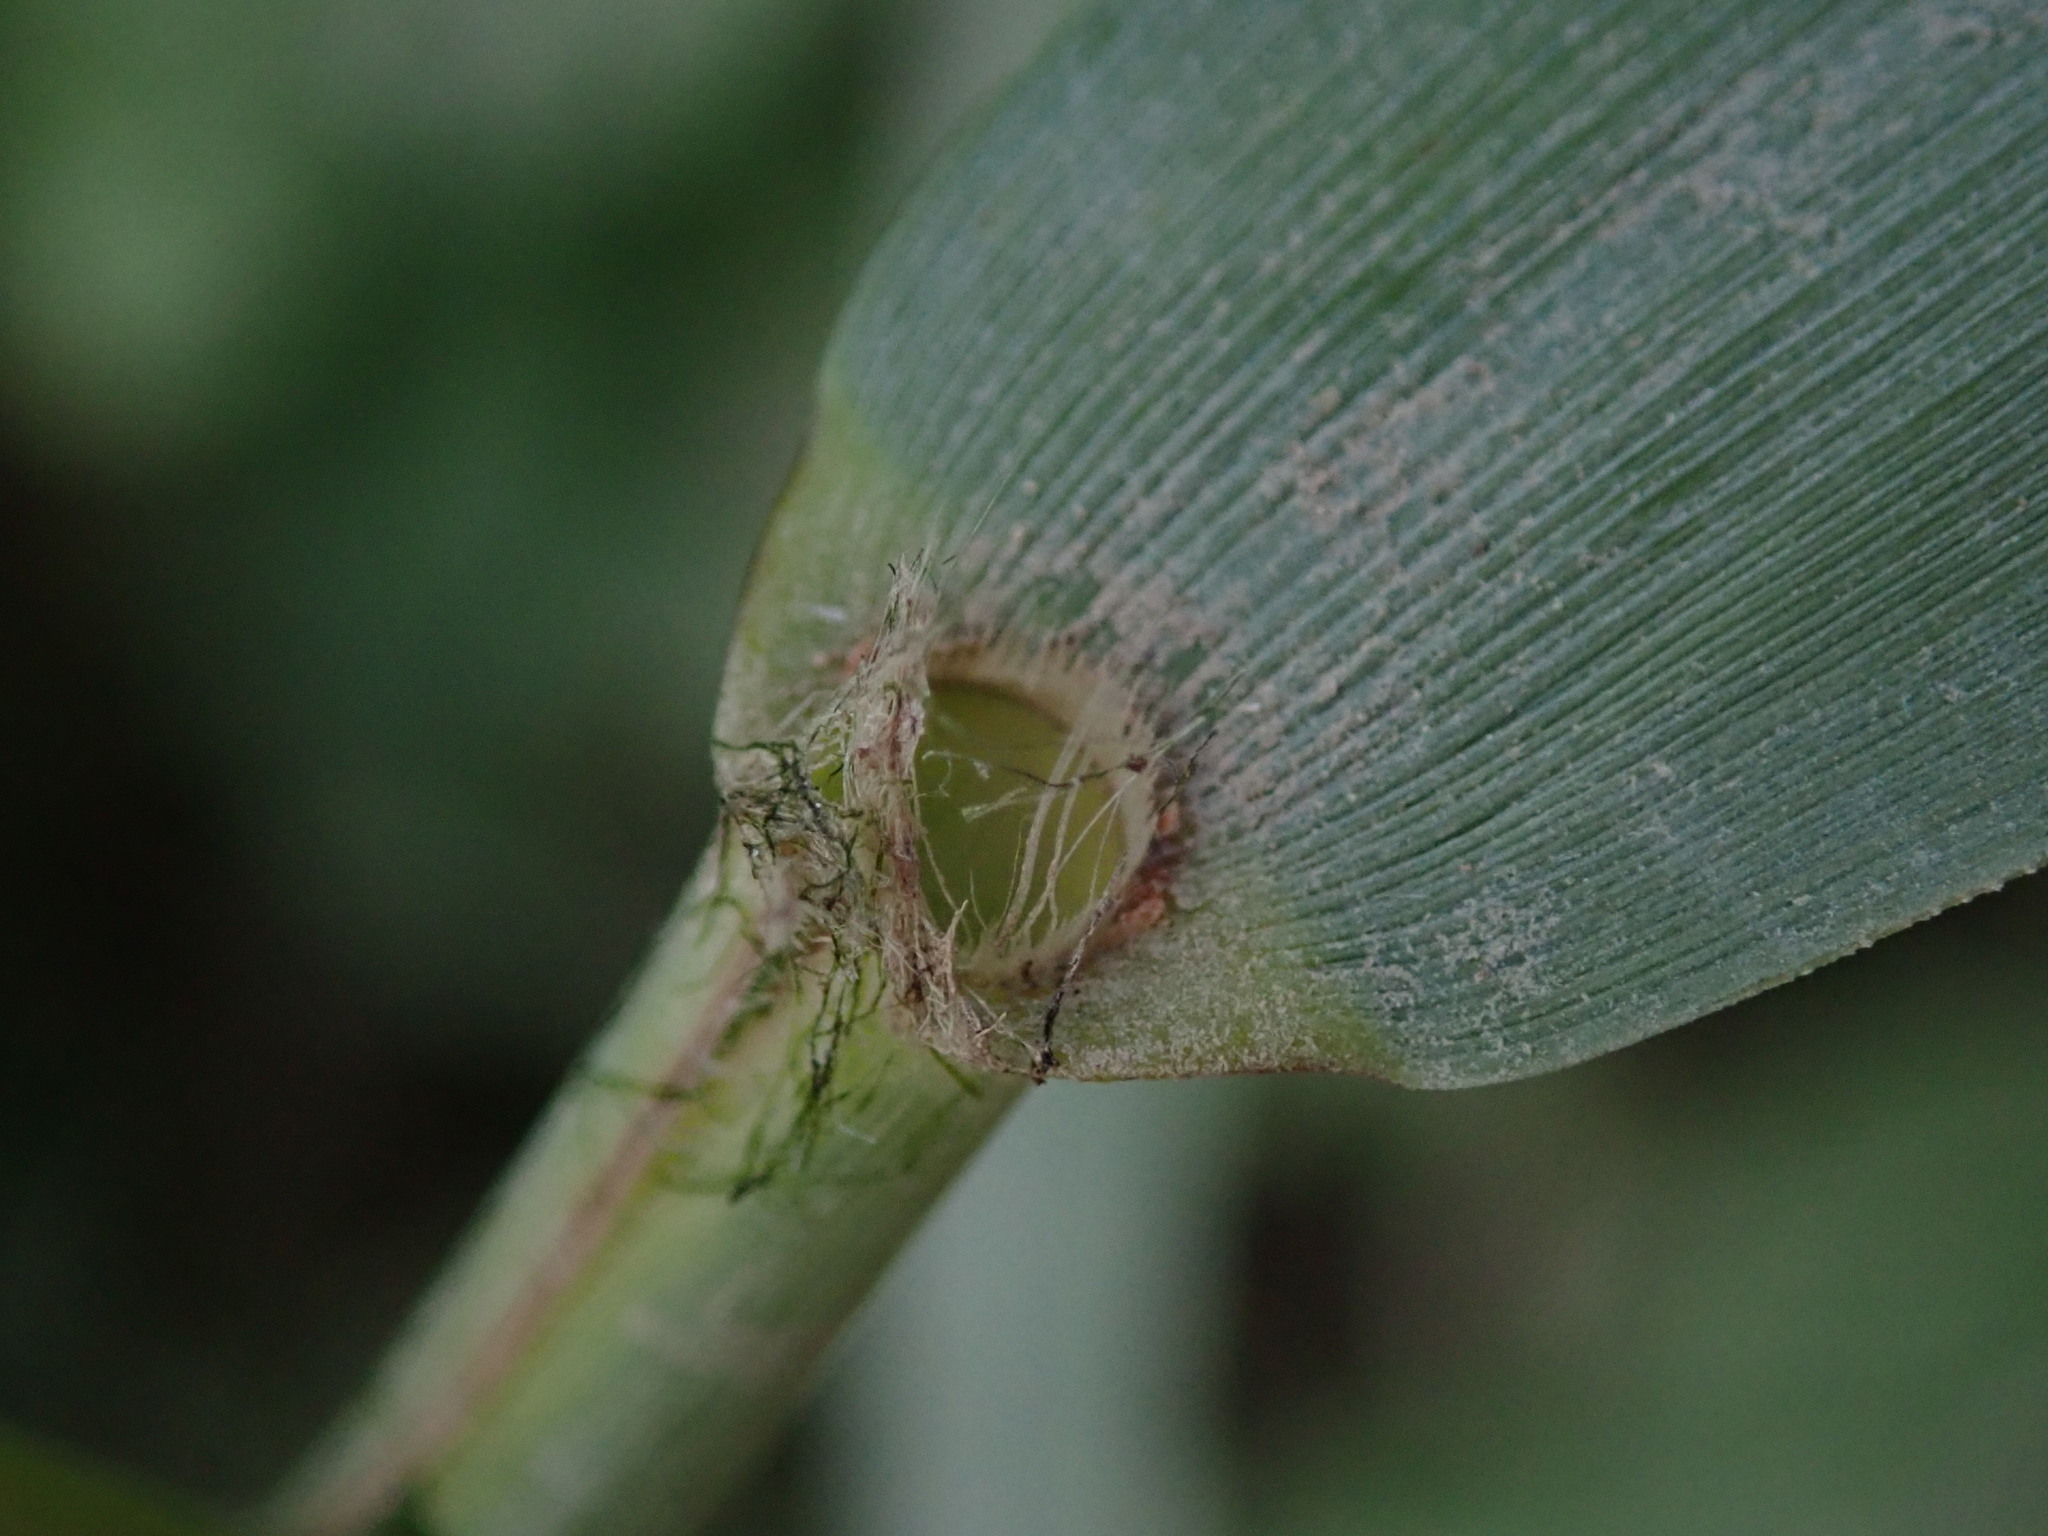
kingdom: Plantae
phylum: Tracheophyta
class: Liliopsida
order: Poales
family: Poaceae
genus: Phragmites
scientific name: Phragmites australis
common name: Common reed
